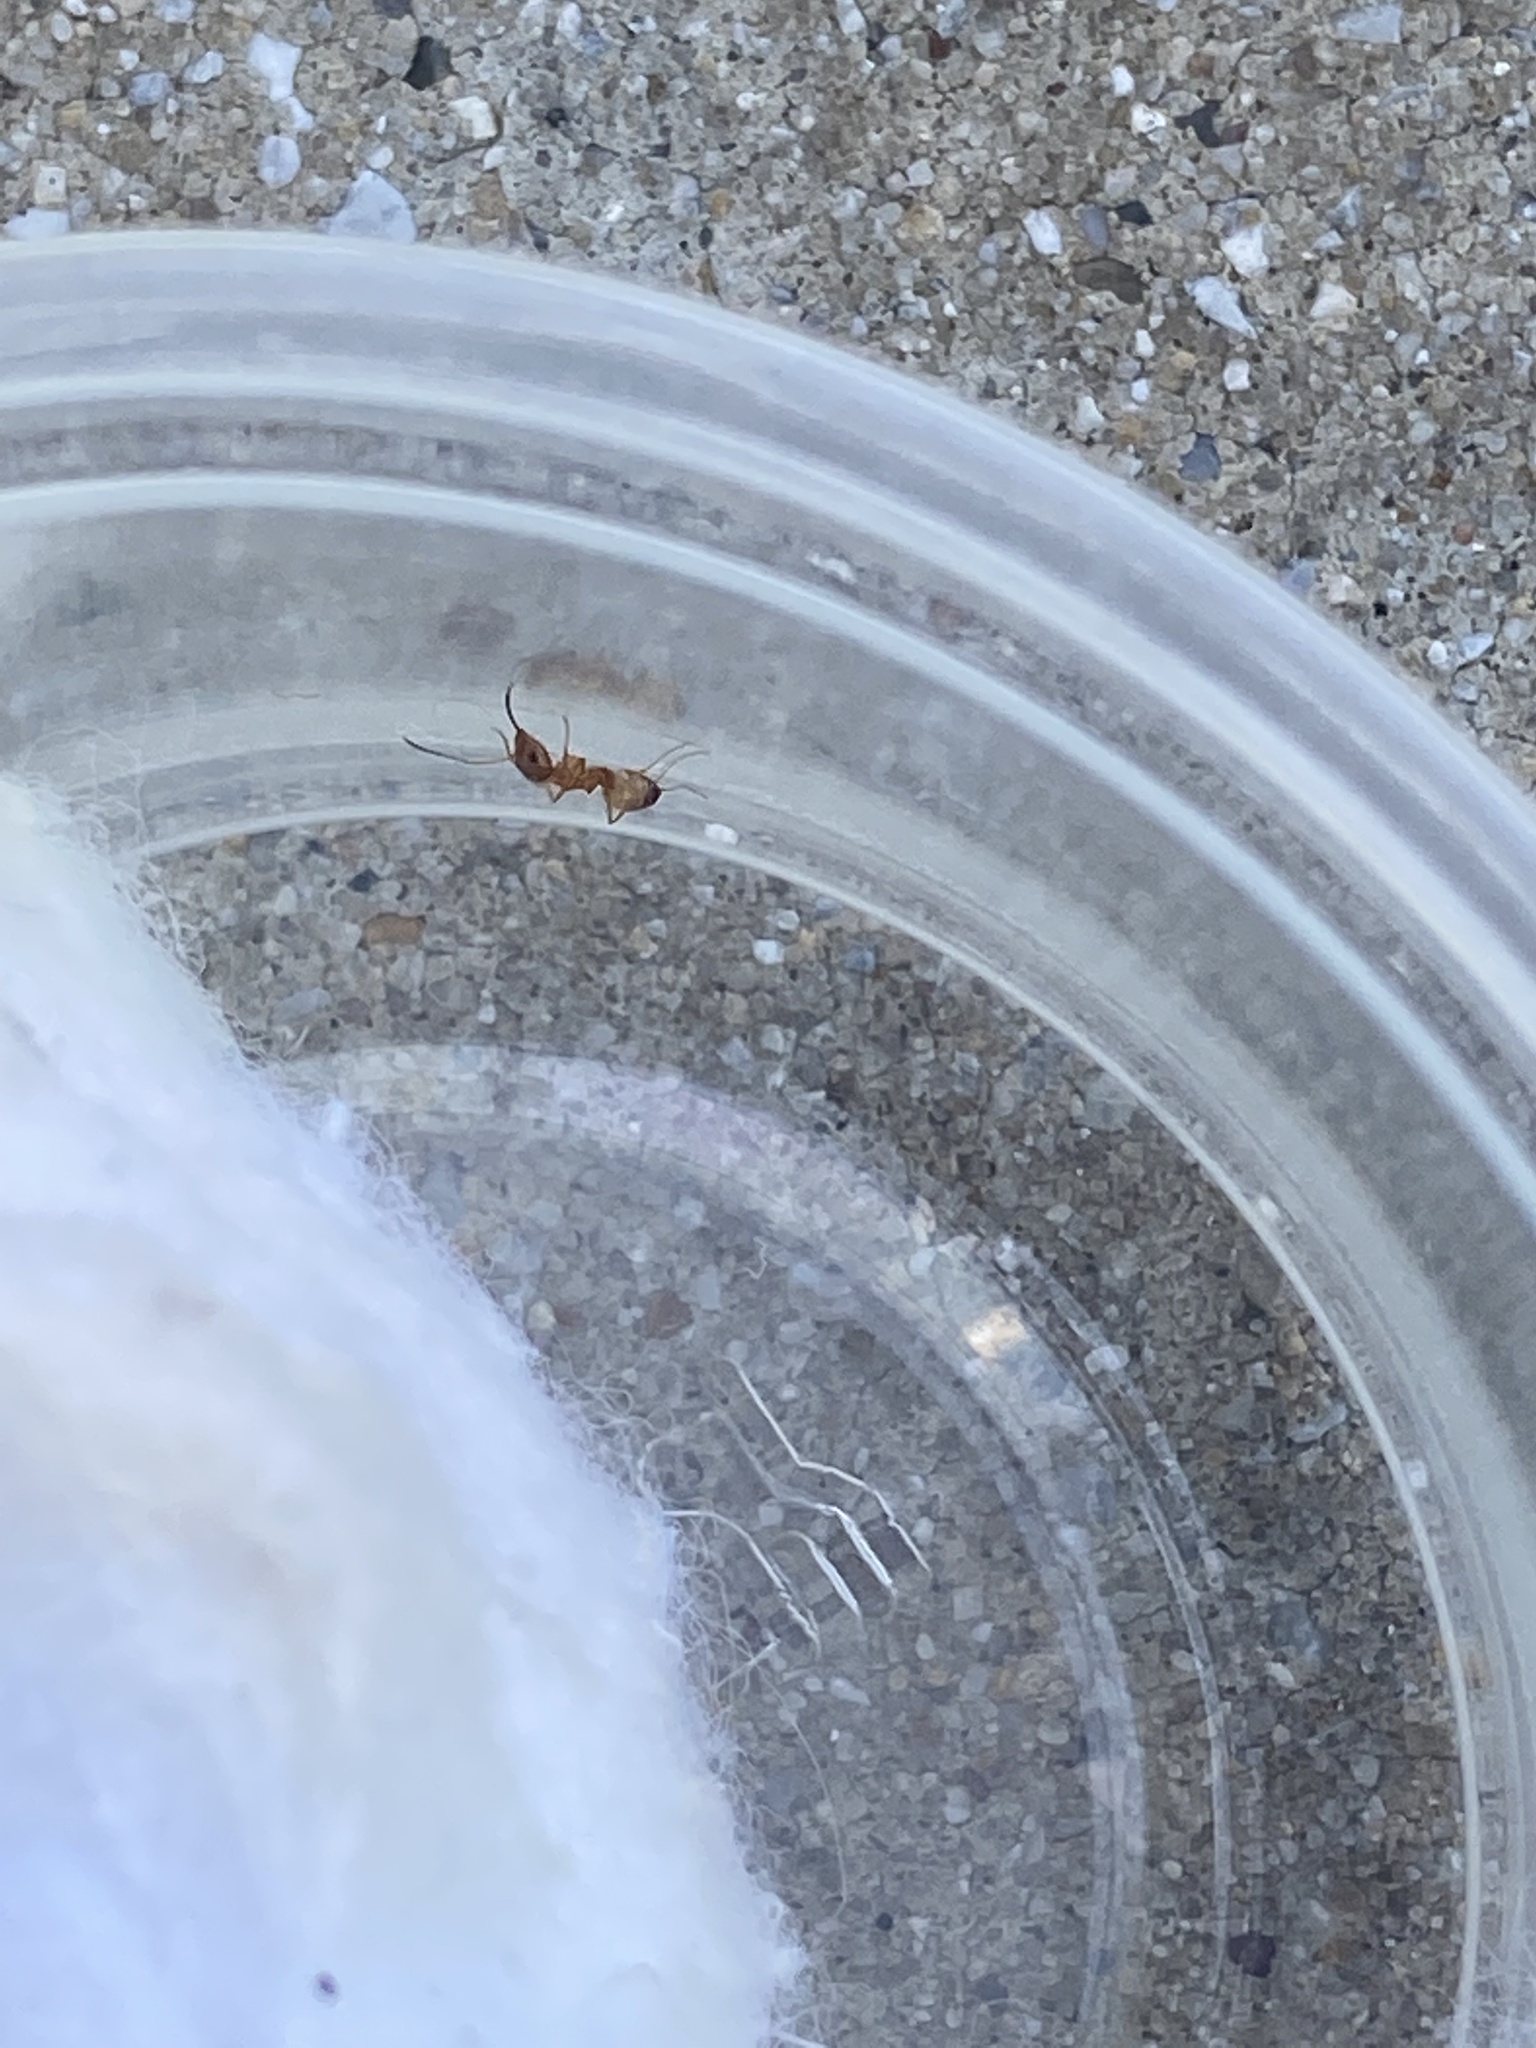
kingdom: Animalia
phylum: Arthropoda
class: Insecta
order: Hymenoptera
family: Formicidae
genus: Dorymyrmex
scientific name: Dorymyrmex flavus
